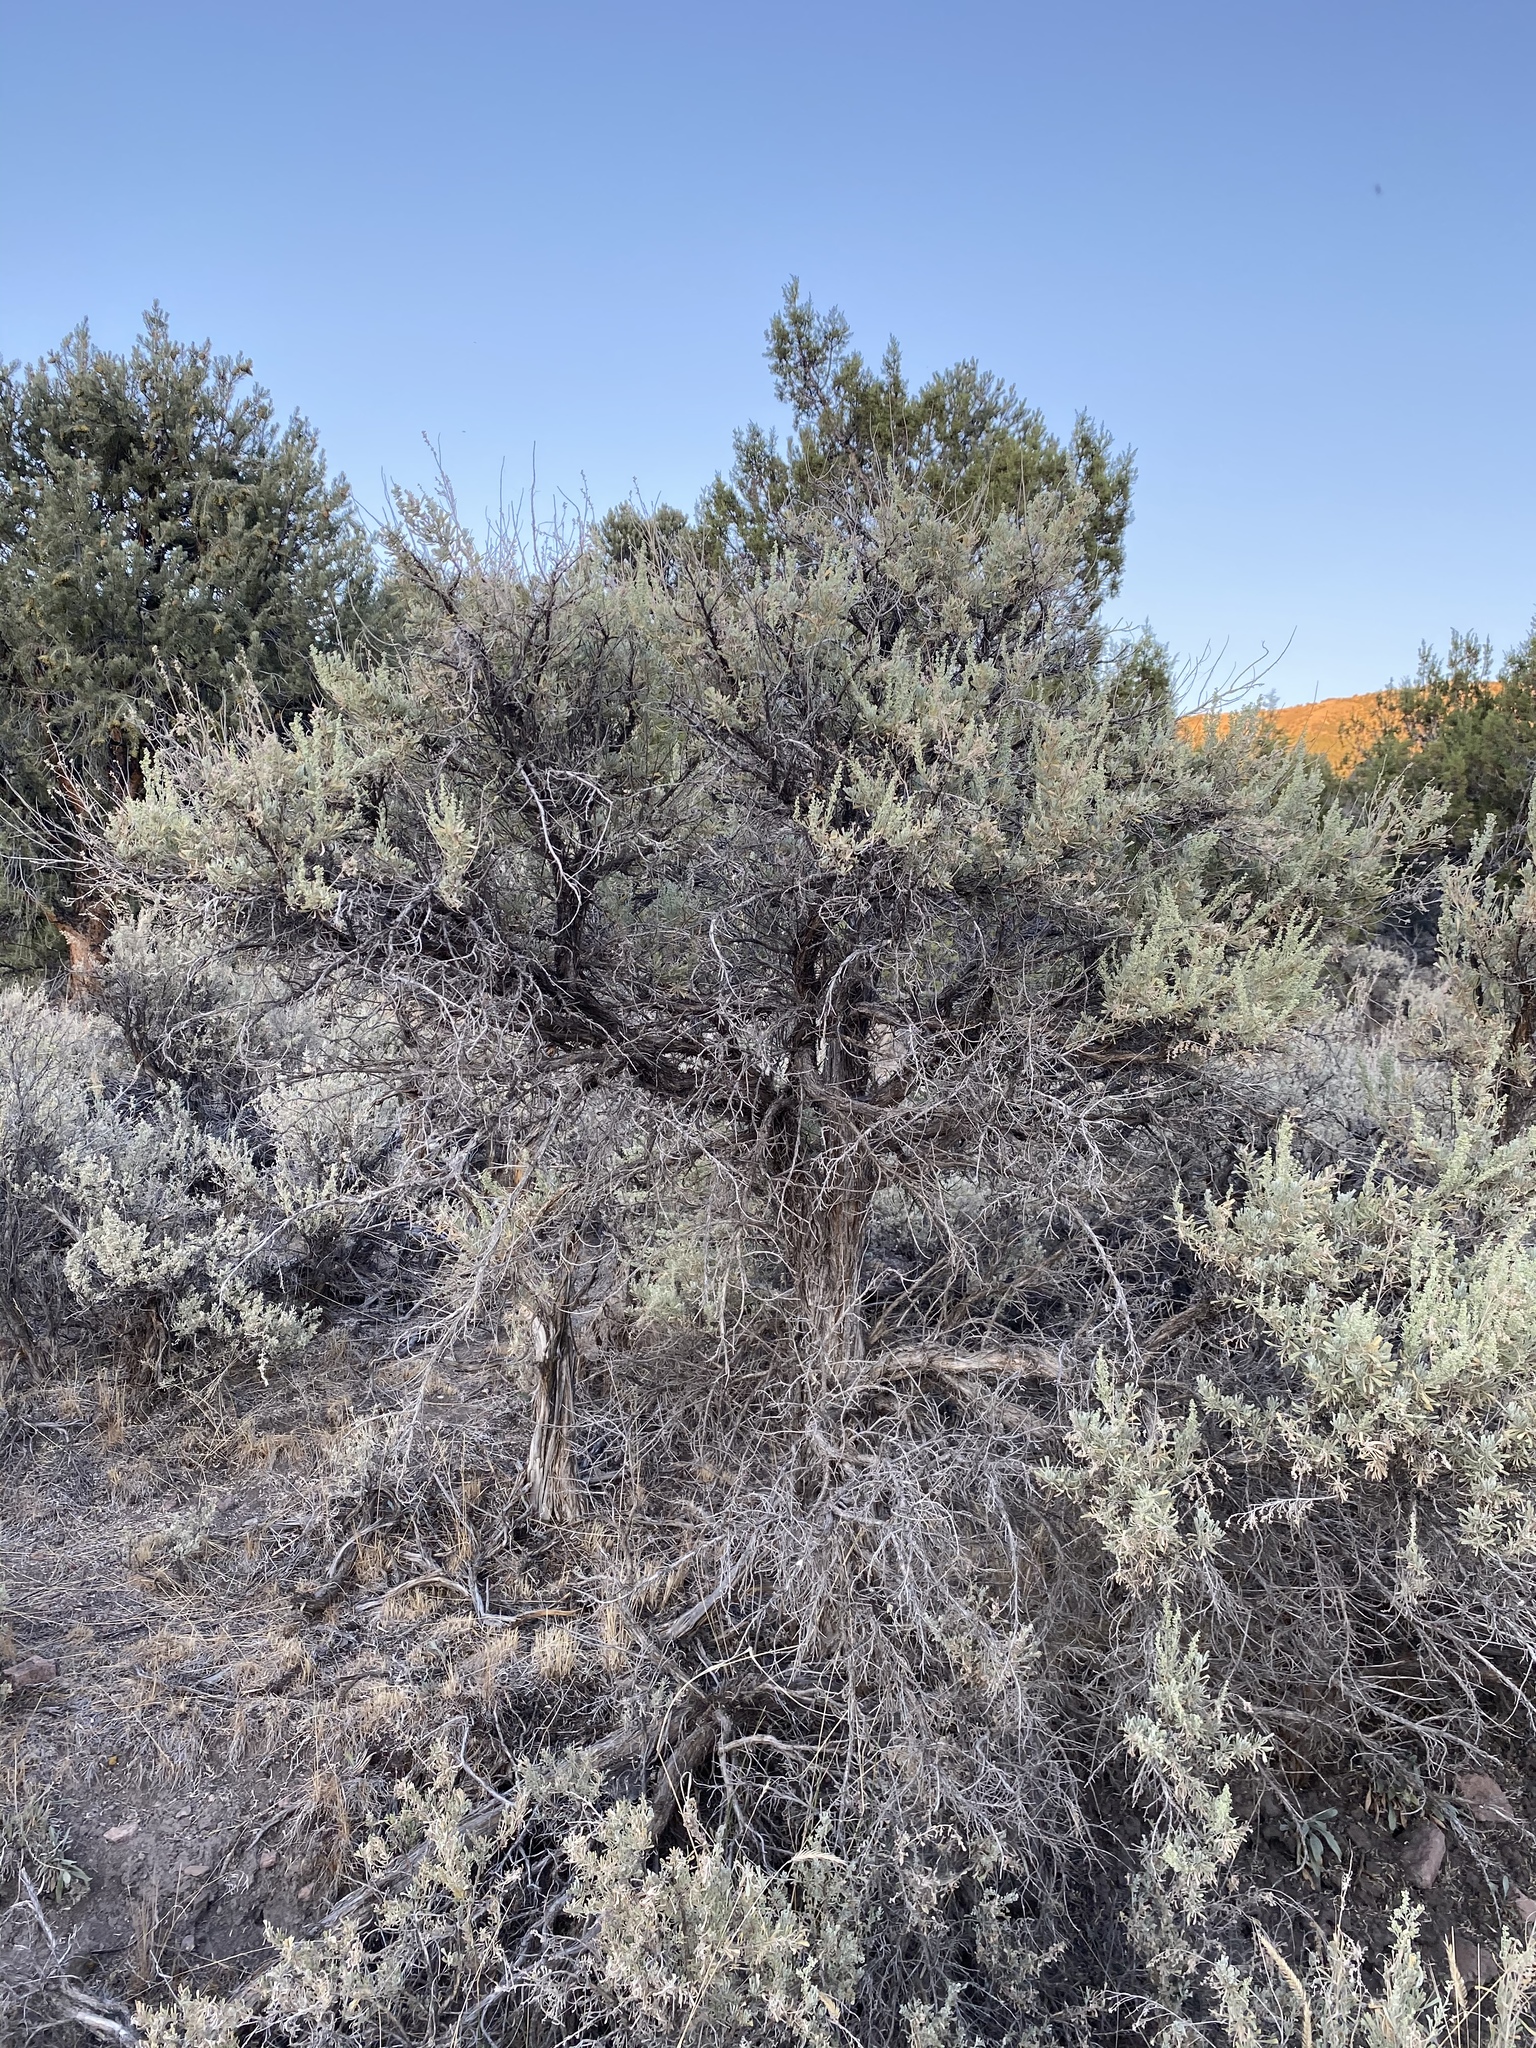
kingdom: Plantae
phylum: Tracheophyta
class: Magnoliopsida
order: Asterales
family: Asteraceae
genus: Artemisia
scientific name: Artemisia tridentata
